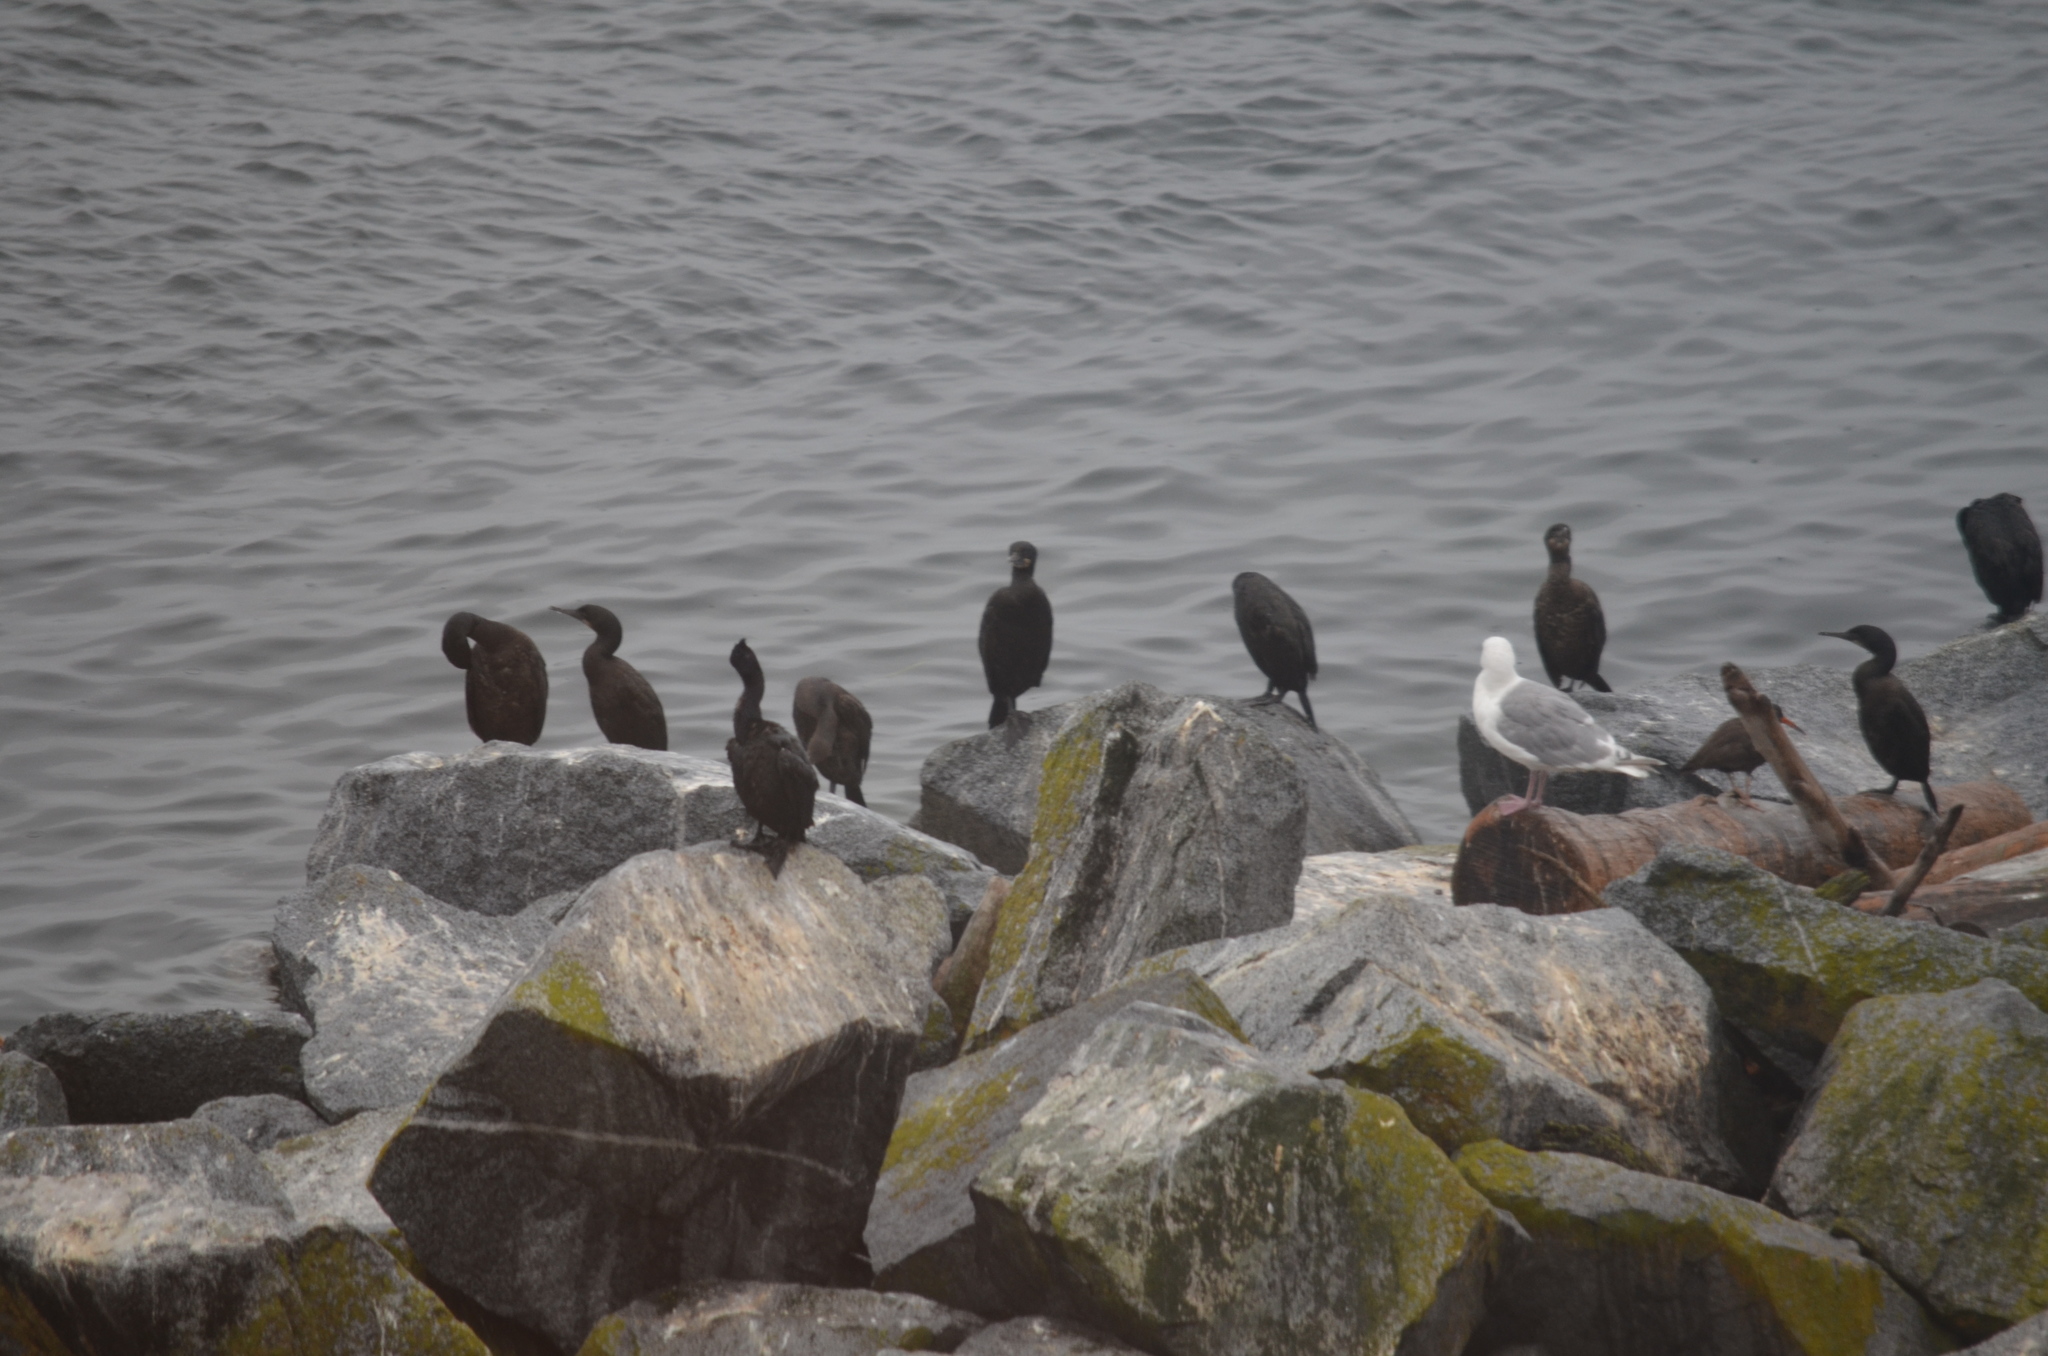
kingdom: Animalia
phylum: Chordata
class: Aves
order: Suliformes
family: Phalacrocoracidae
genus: Urile
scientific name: Urile penicillatus
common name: Brandt's cormorant
